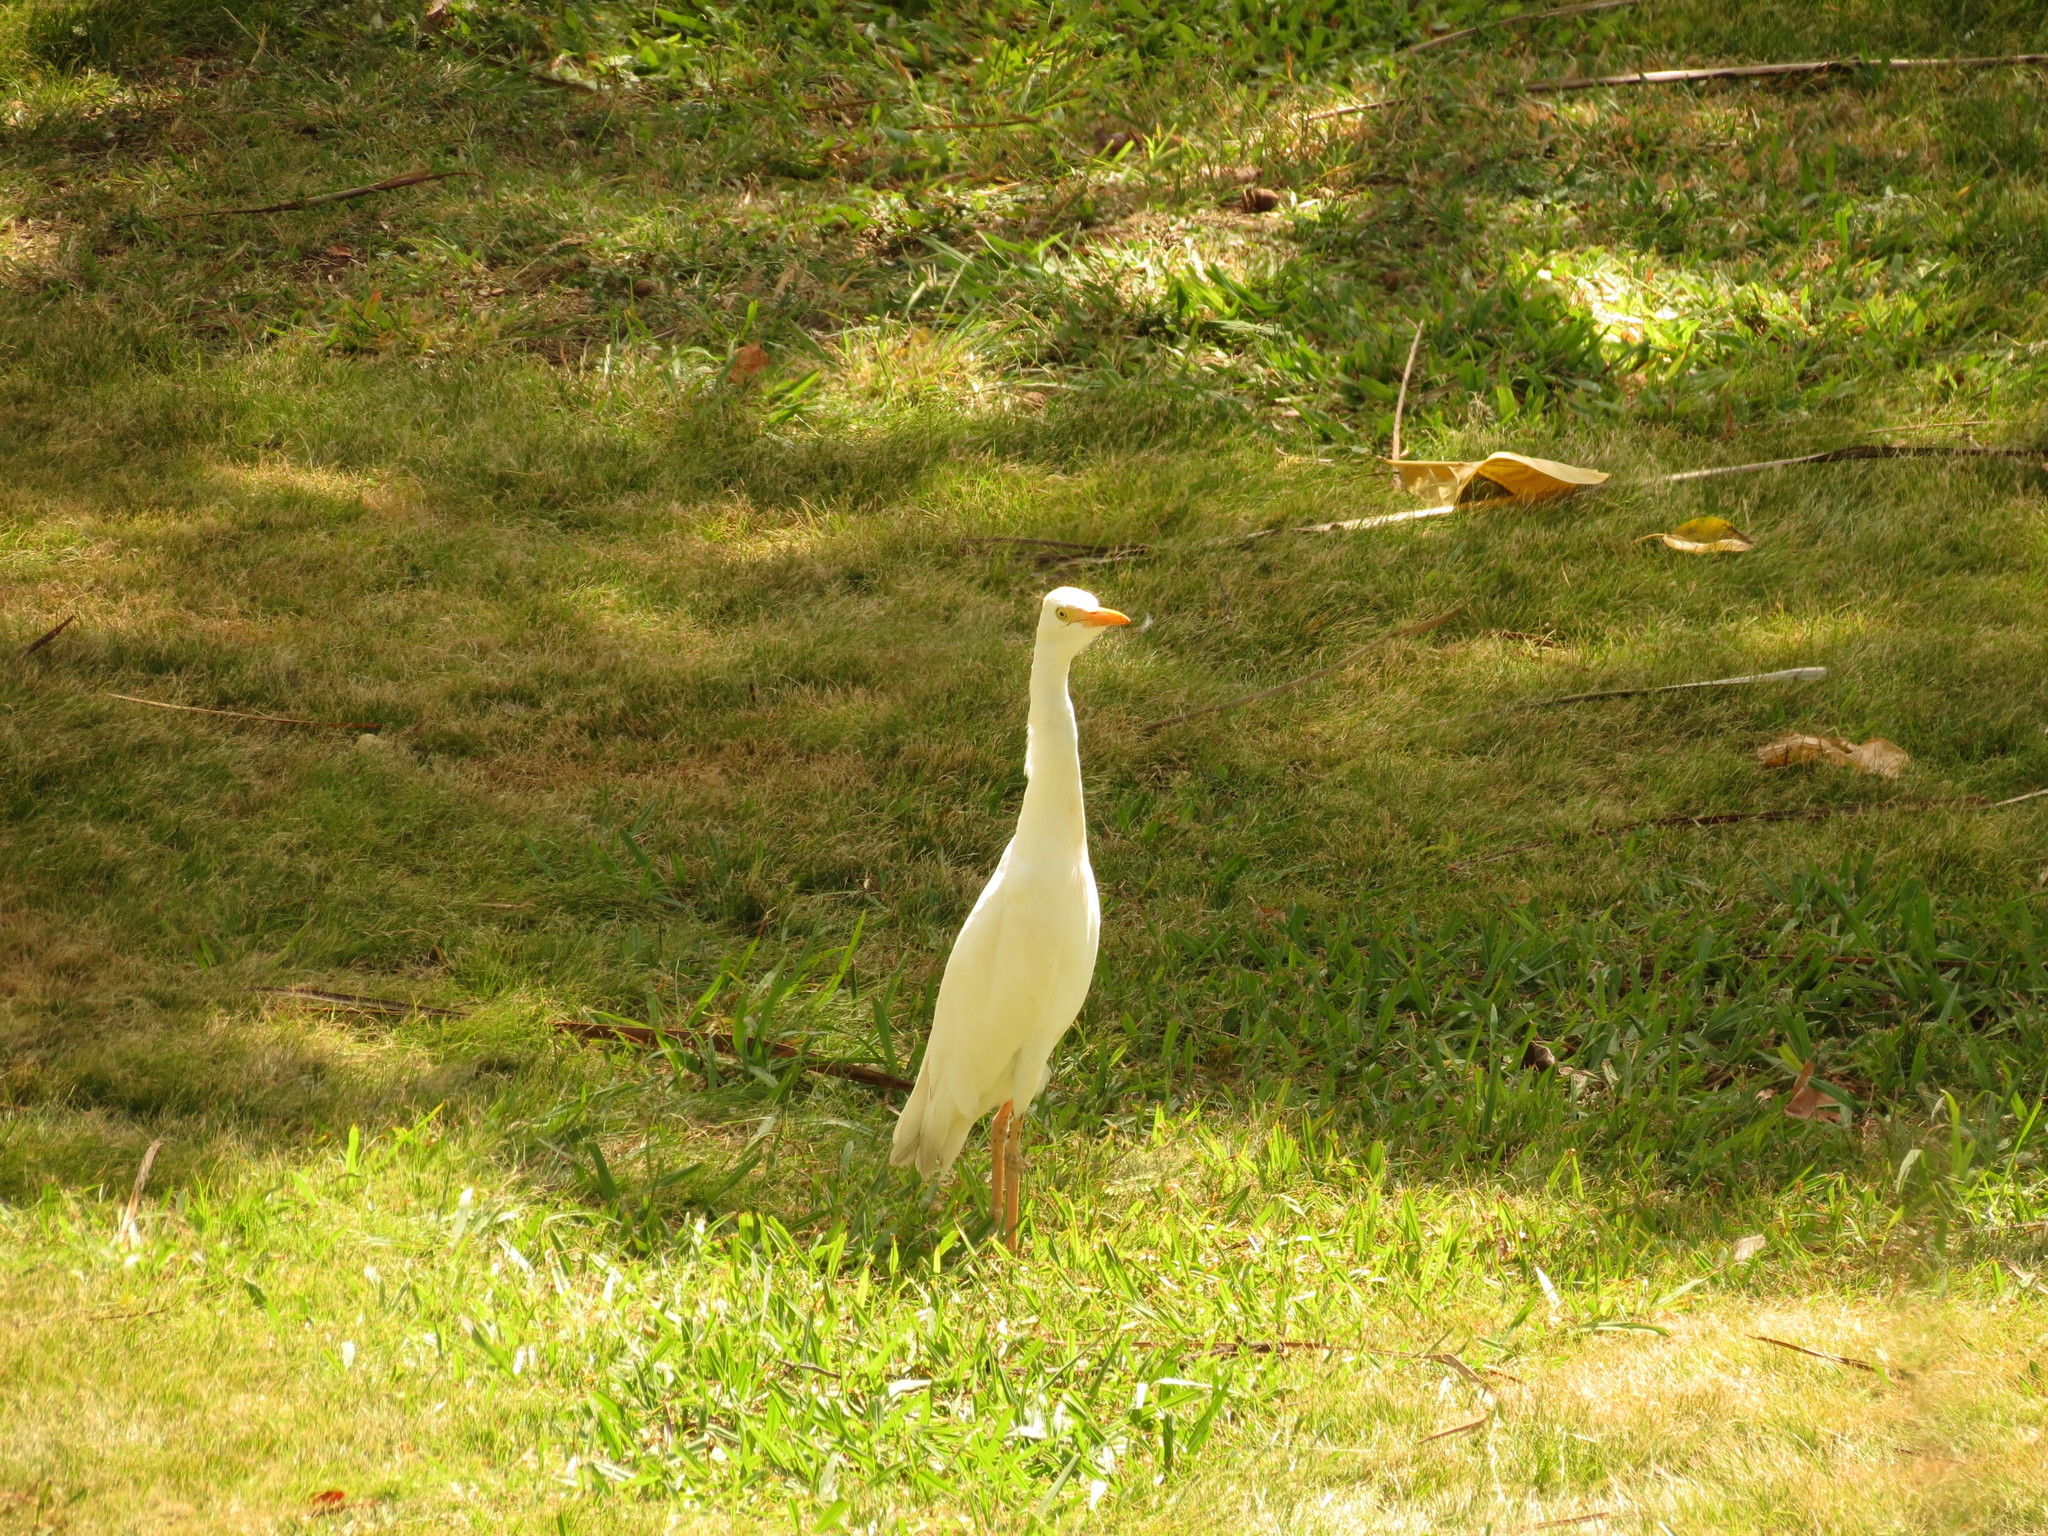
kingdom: Animalia
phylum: Chordata
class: Aves
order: Pelecaniformes
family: Ardeidae
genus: Bubulcus
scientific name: Bubulcus ibis
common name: Cattle egret
